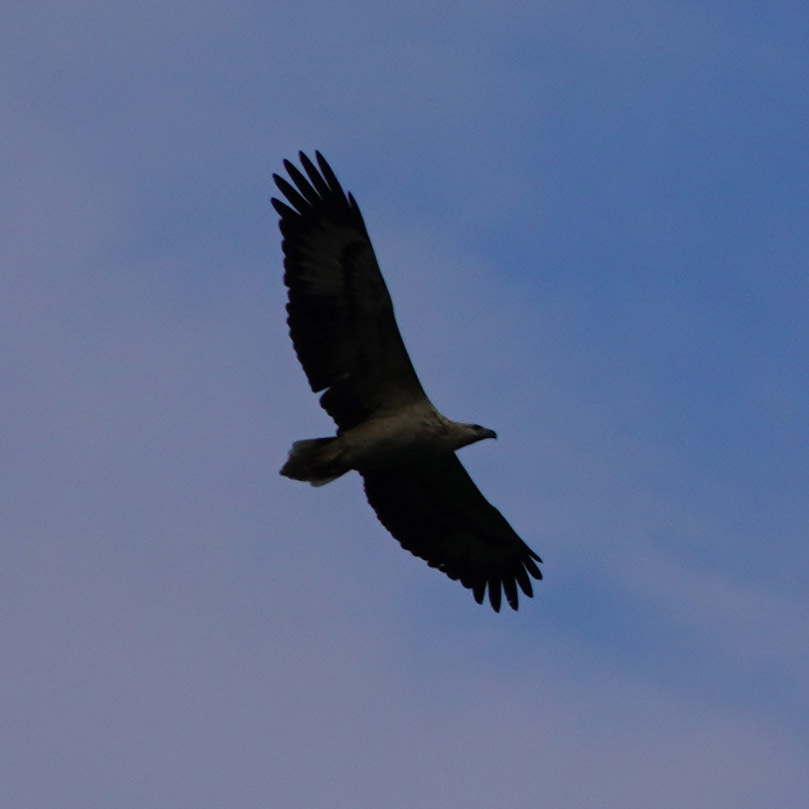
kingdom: Animalia
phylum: Chordata
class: Aves
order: Accipitriformes
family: Accipitridae
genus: Haliaeetus
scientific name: Haliaeetus leucogaster
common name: White-bellied sea eagle
